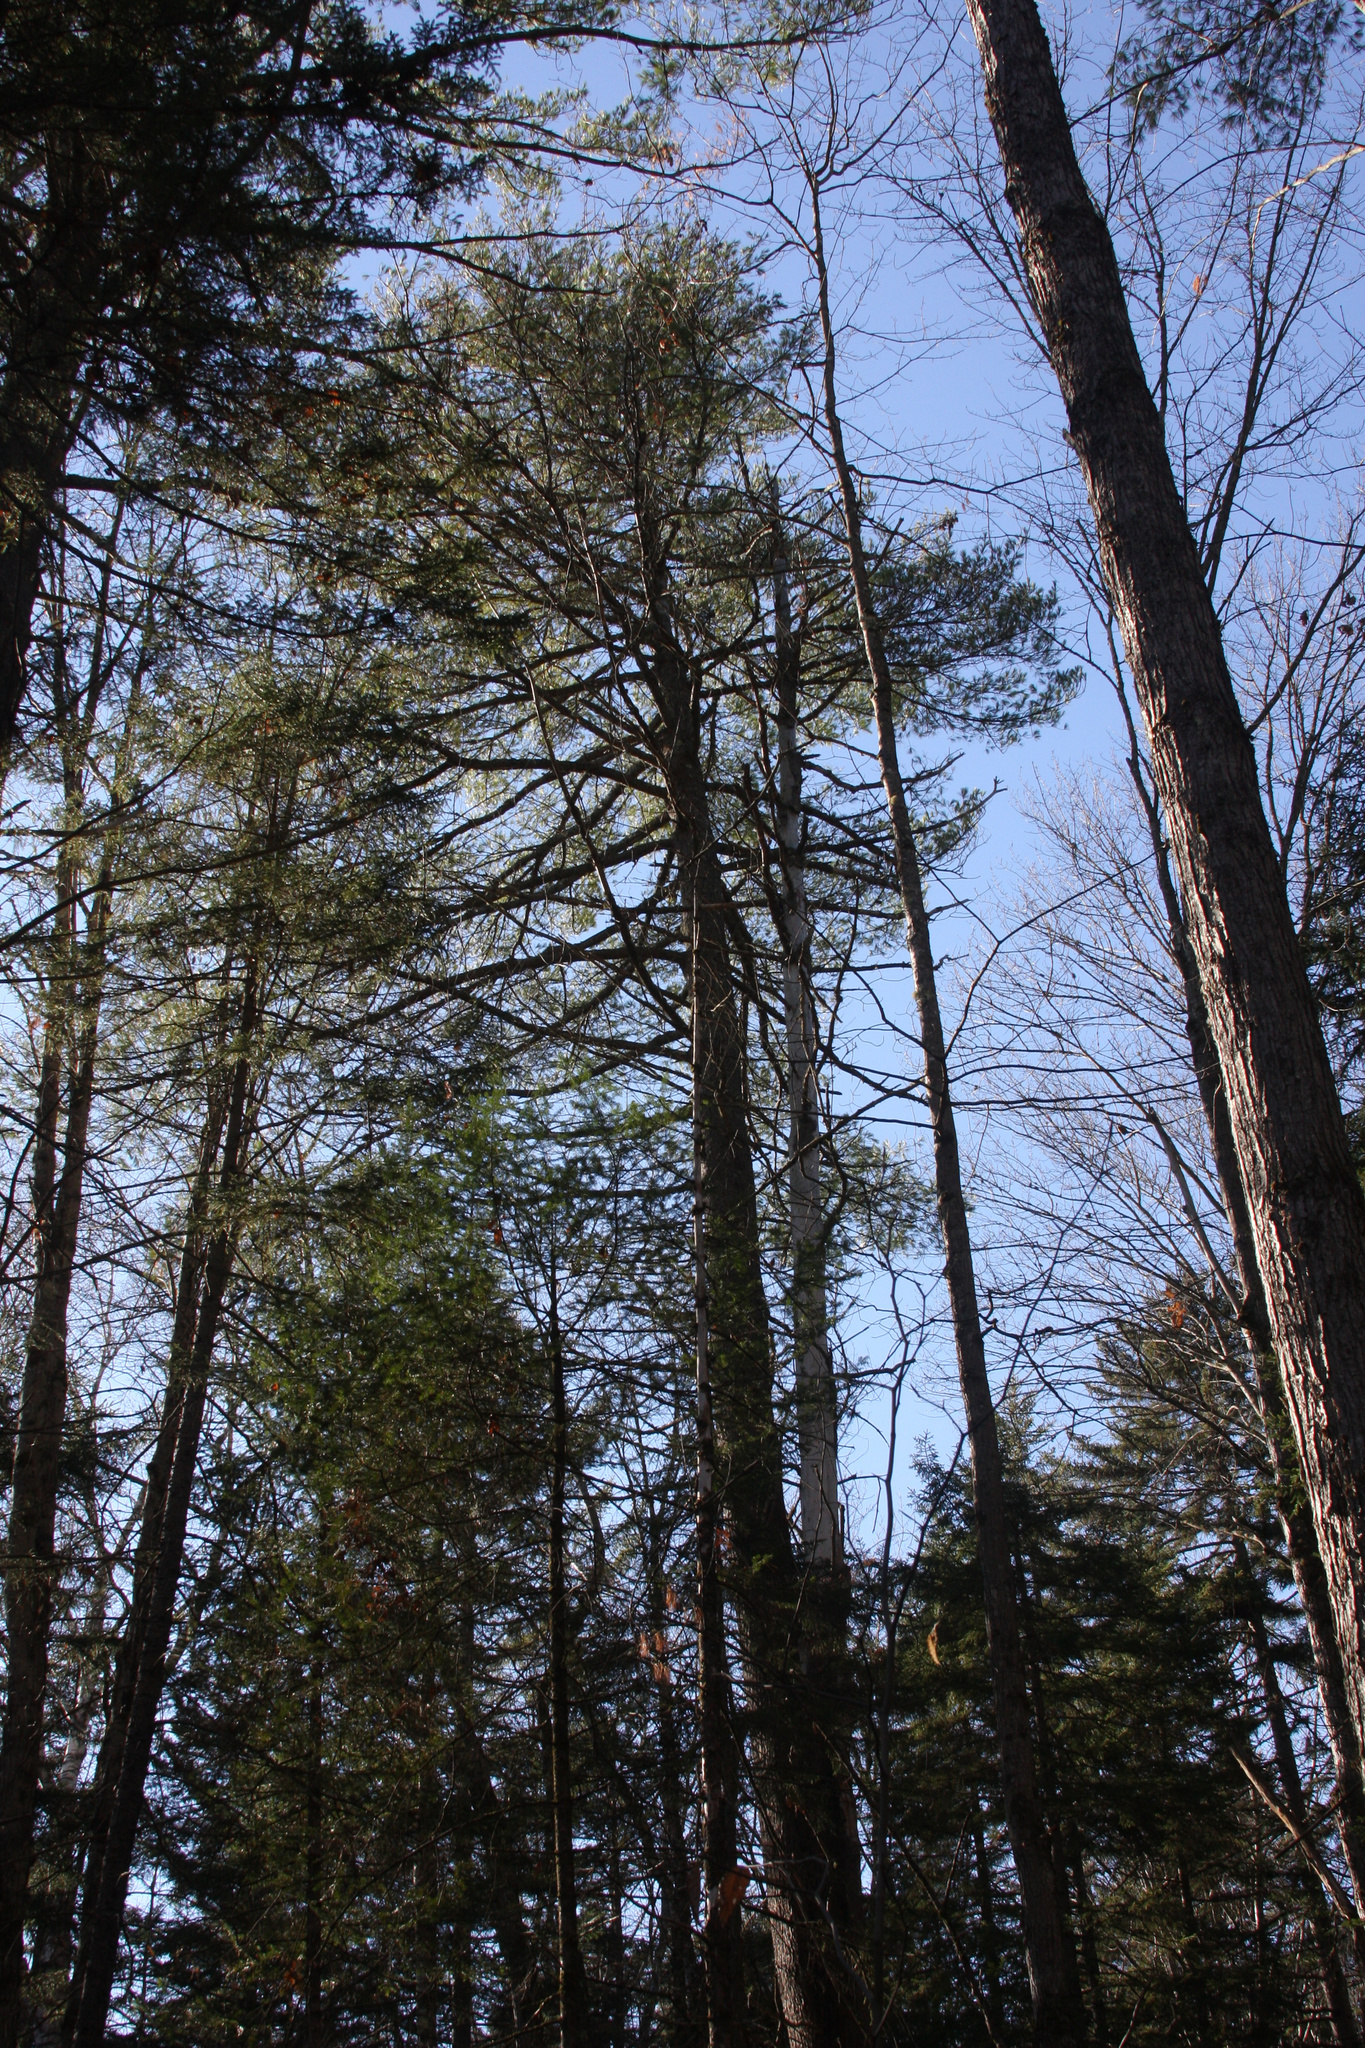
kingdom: Plantae
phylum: Tracheophyta
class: Pinopsida
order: Pinales
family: Pinaceae
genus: Pinus
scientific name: Pinus strobus
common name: Weymouth pine
